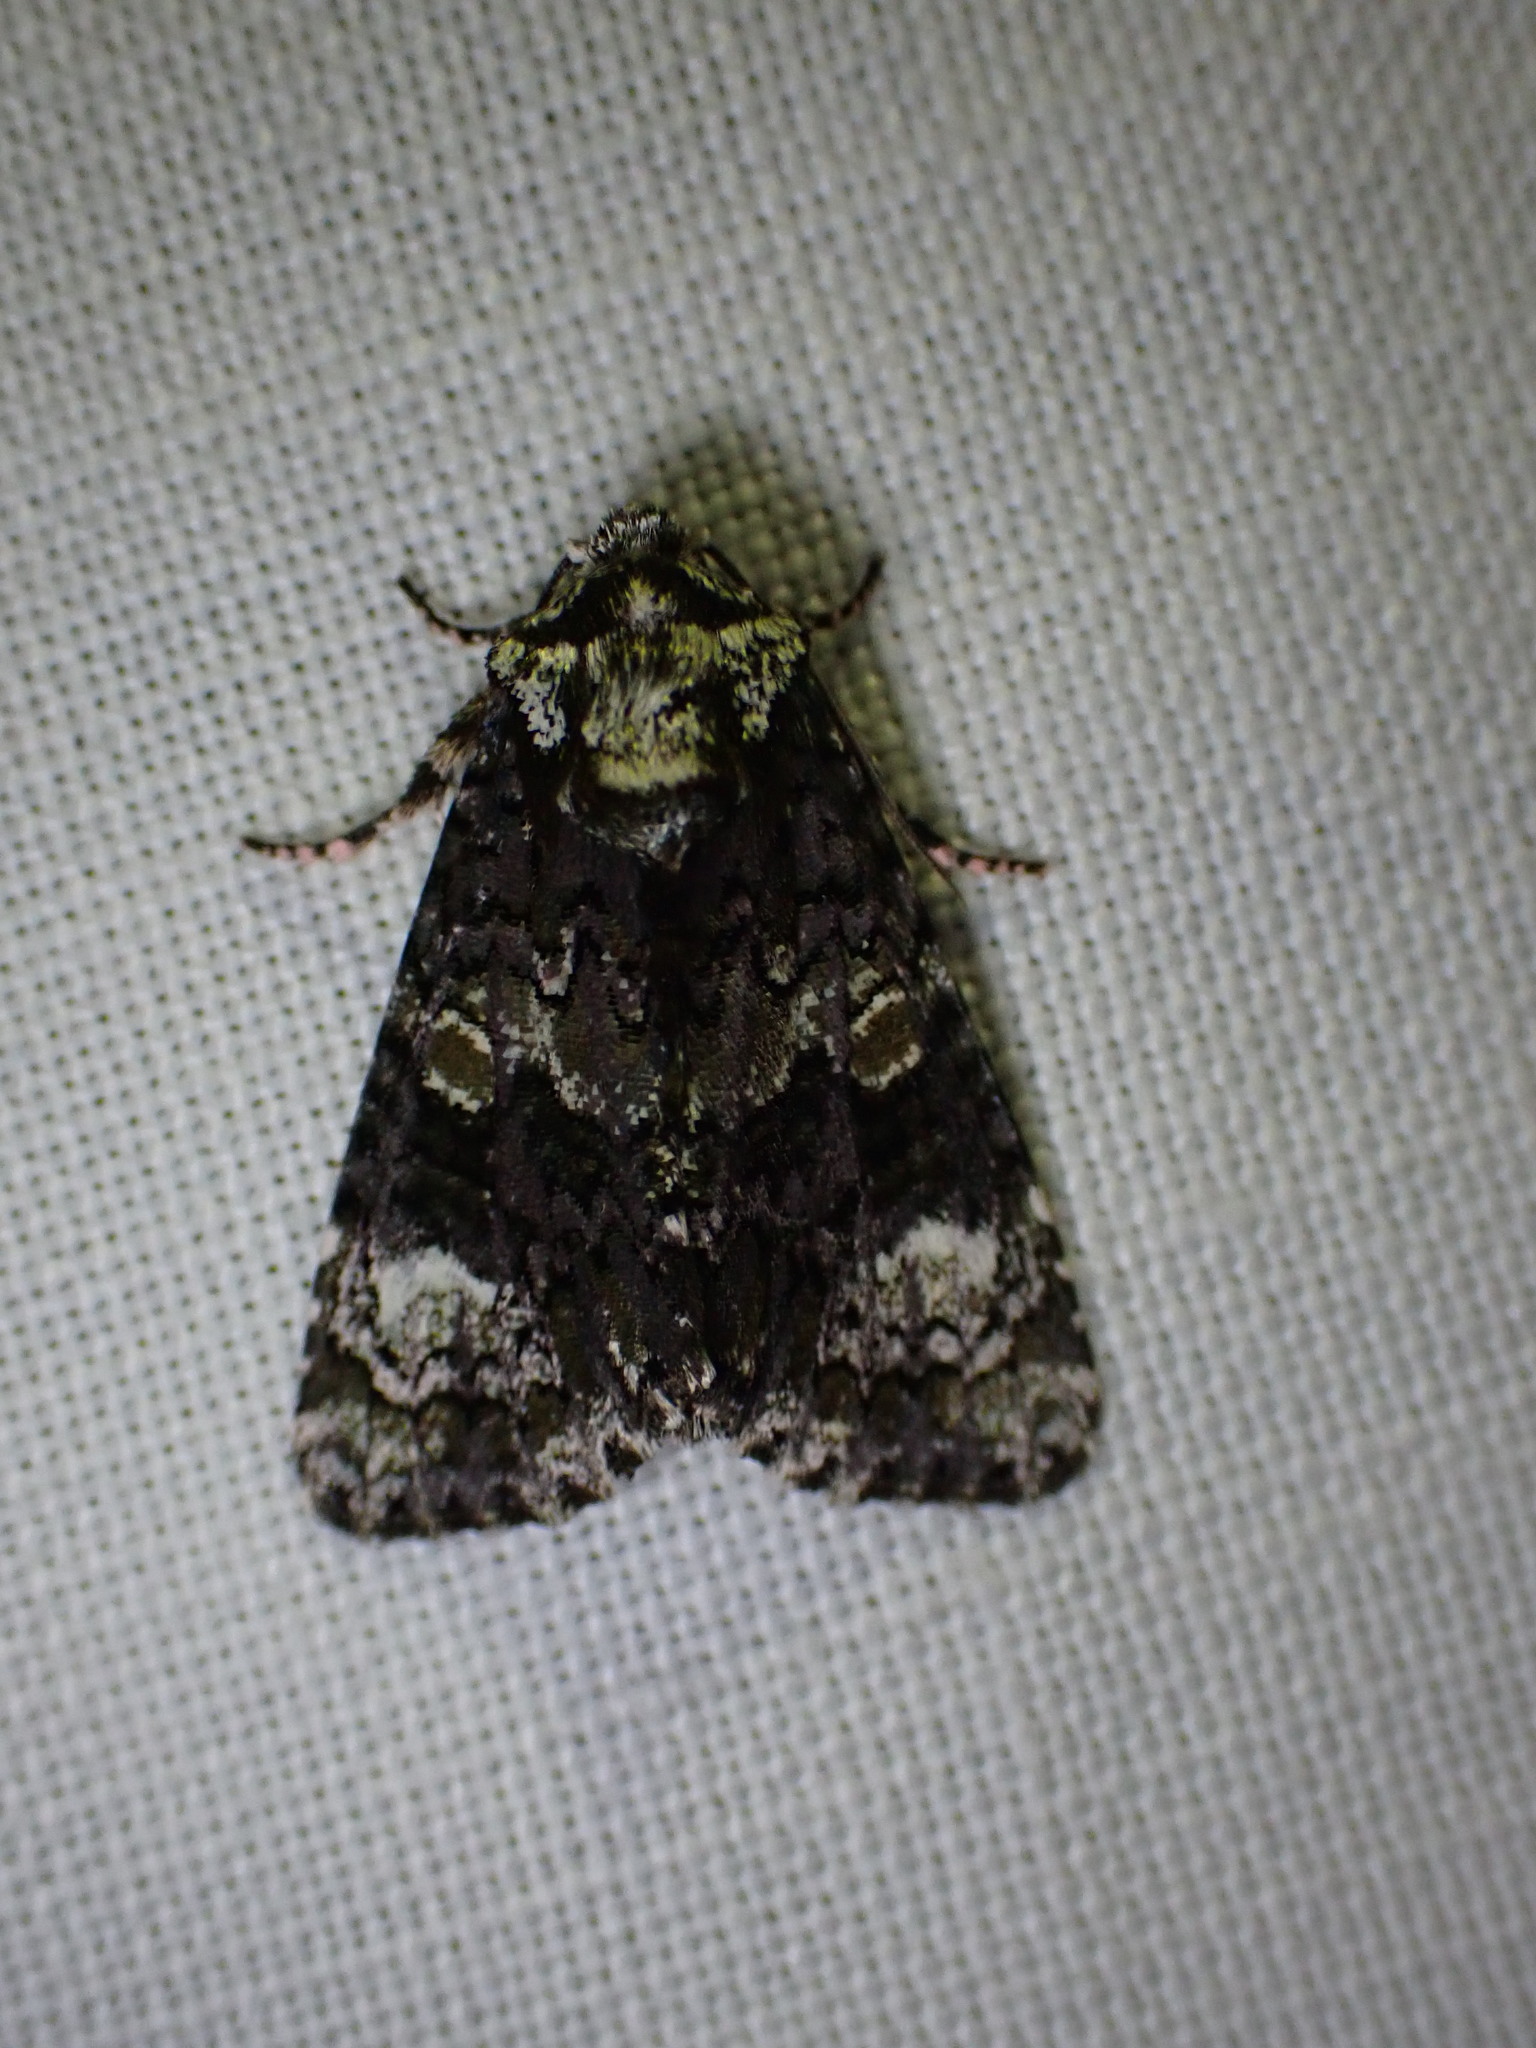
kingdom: Animalia
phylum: Arthropoda
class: Insecta
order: Lepidoptera
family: Noctuidae
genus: Craniophora
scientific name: Craniophora ligustri
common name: Coronet
